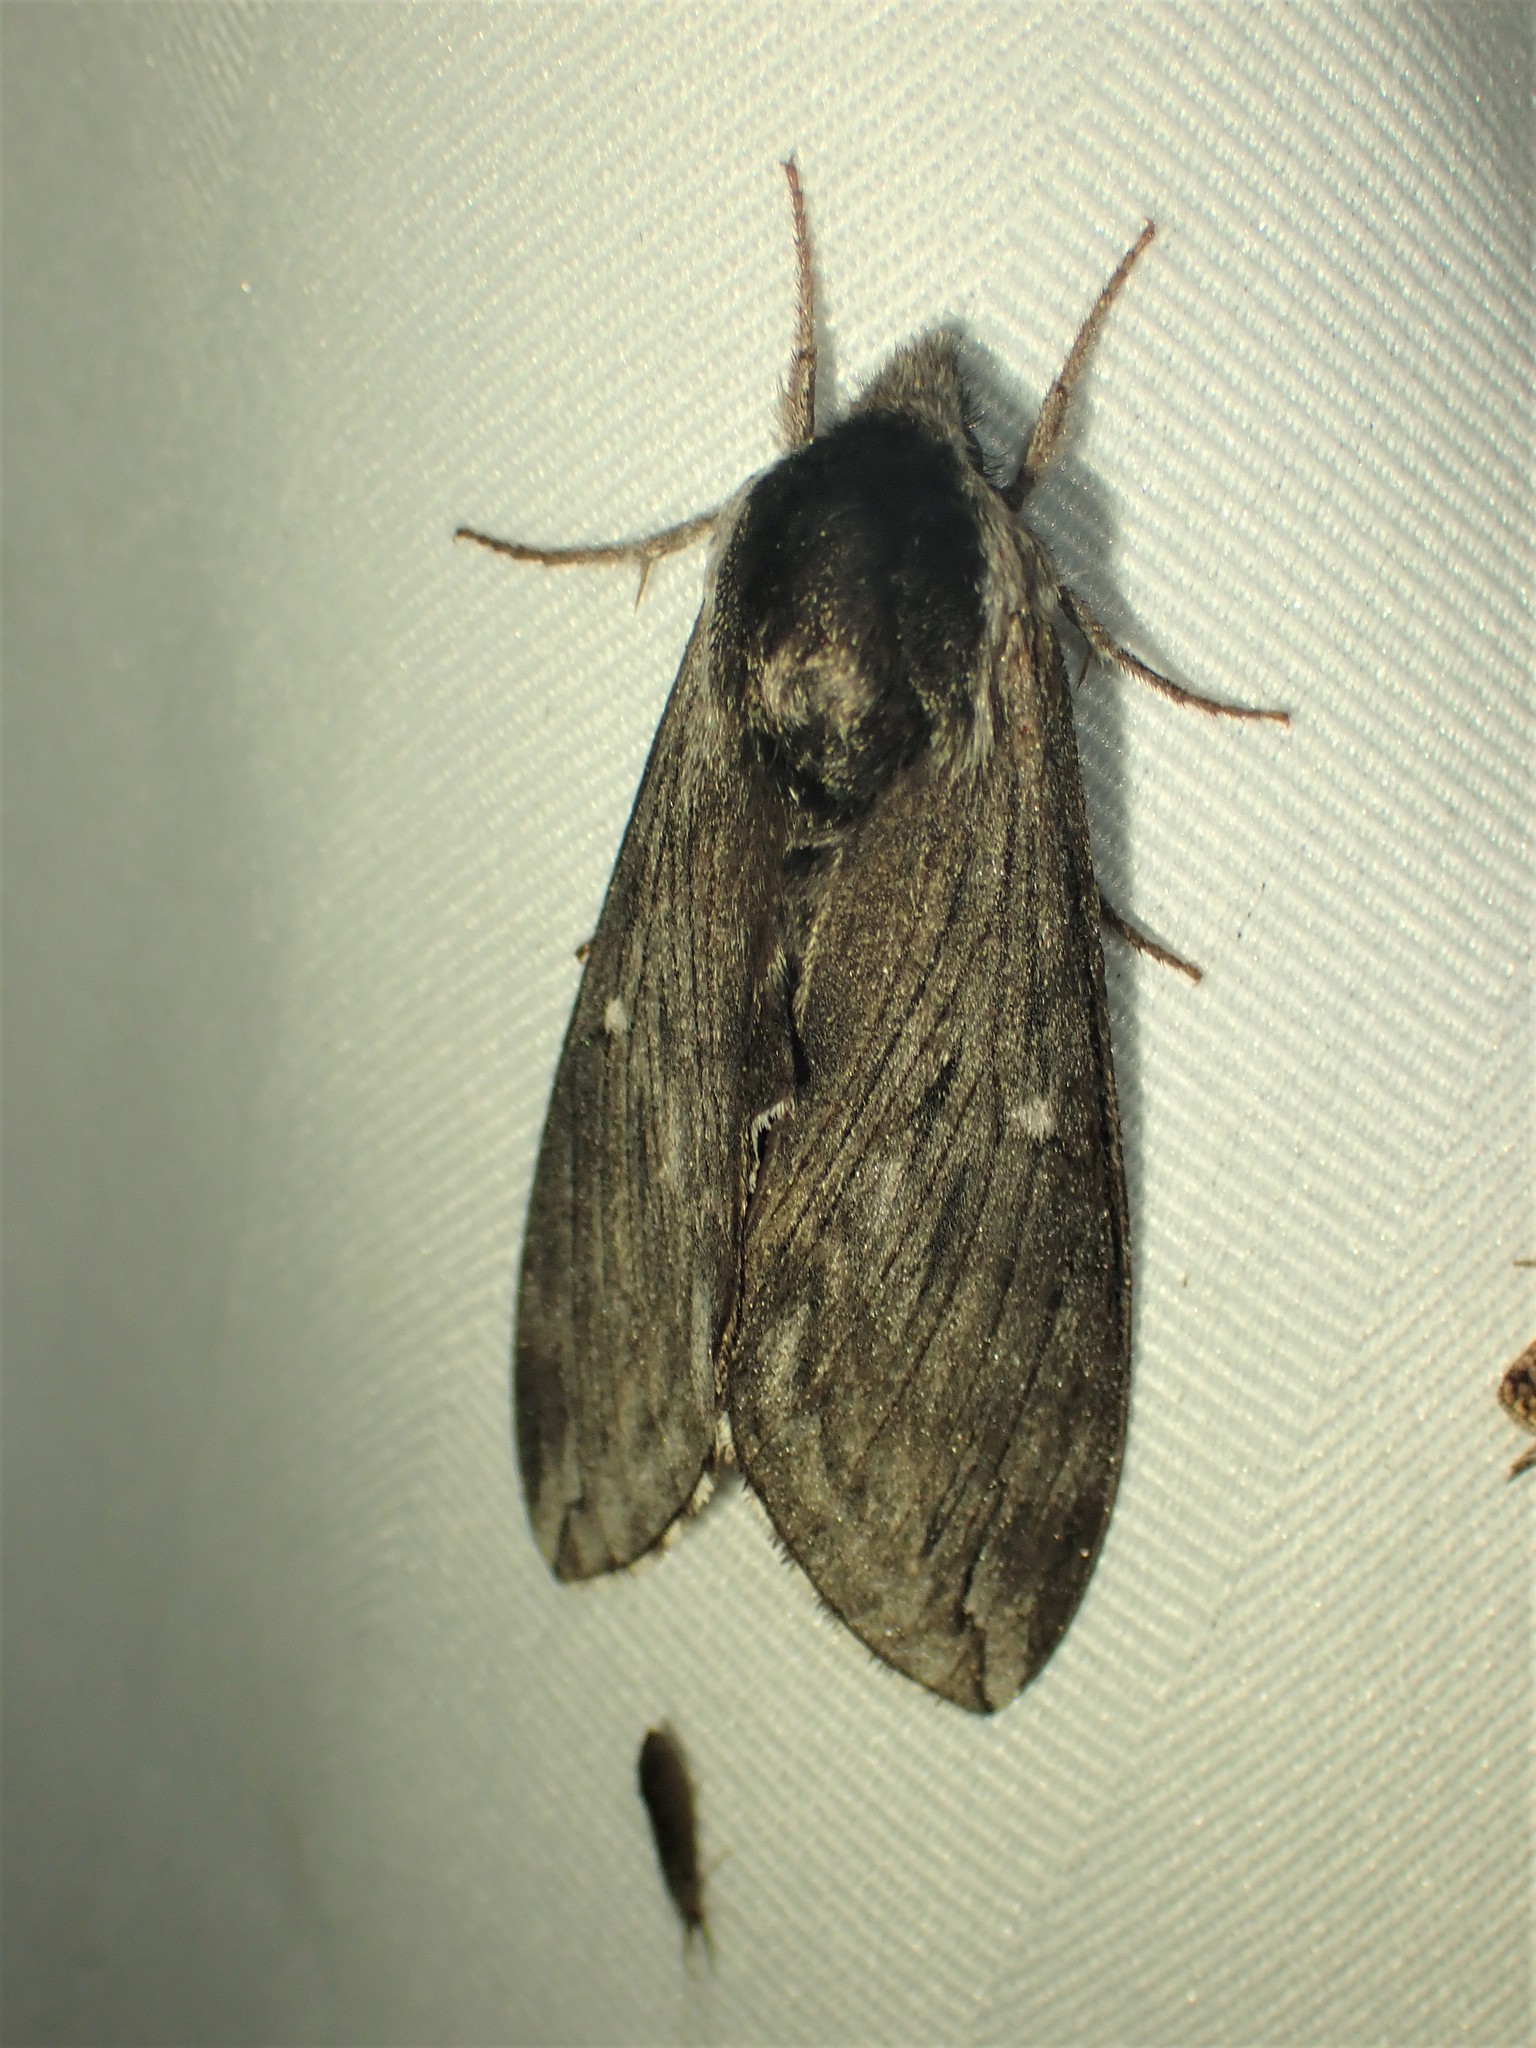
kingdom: Animalia
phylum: Arthropoda
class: Insecta
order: Lepidoptera
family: Sphingidae
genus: Sphinx
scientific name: Sphinx poecila
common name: Northern apple sphinx
